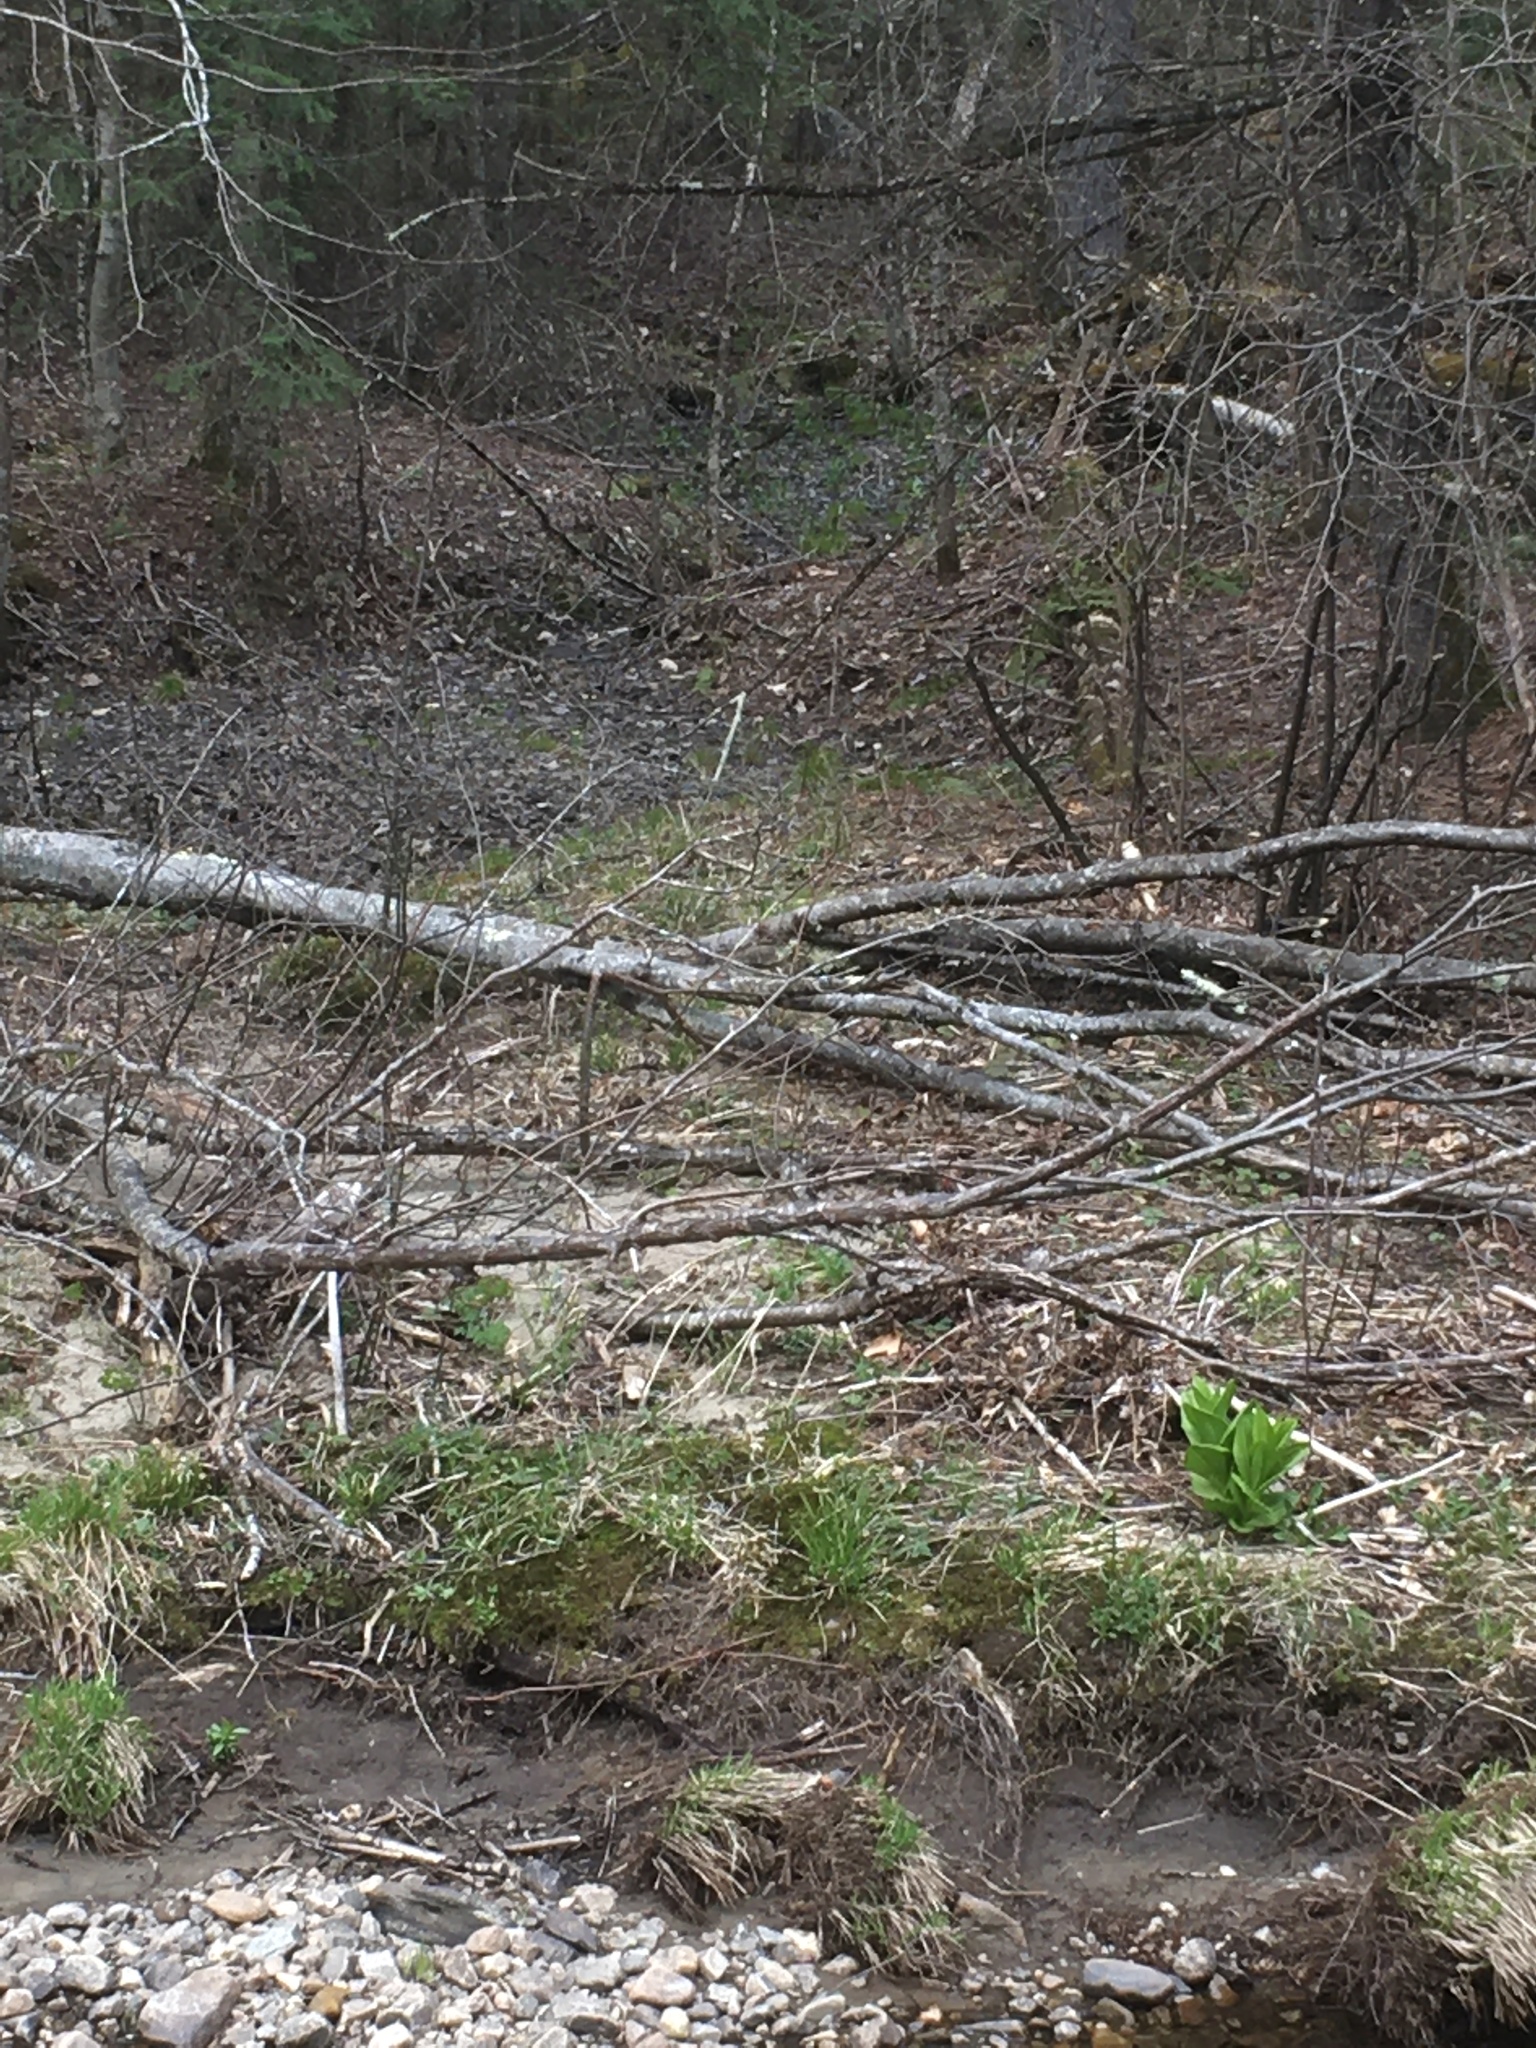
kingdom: Plantae
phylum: Tracheophyta
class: Liliopsida
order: Liliales
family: Melanthiaceae
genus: Veratrum
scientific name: Veratrum viride
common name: American false hellebore
